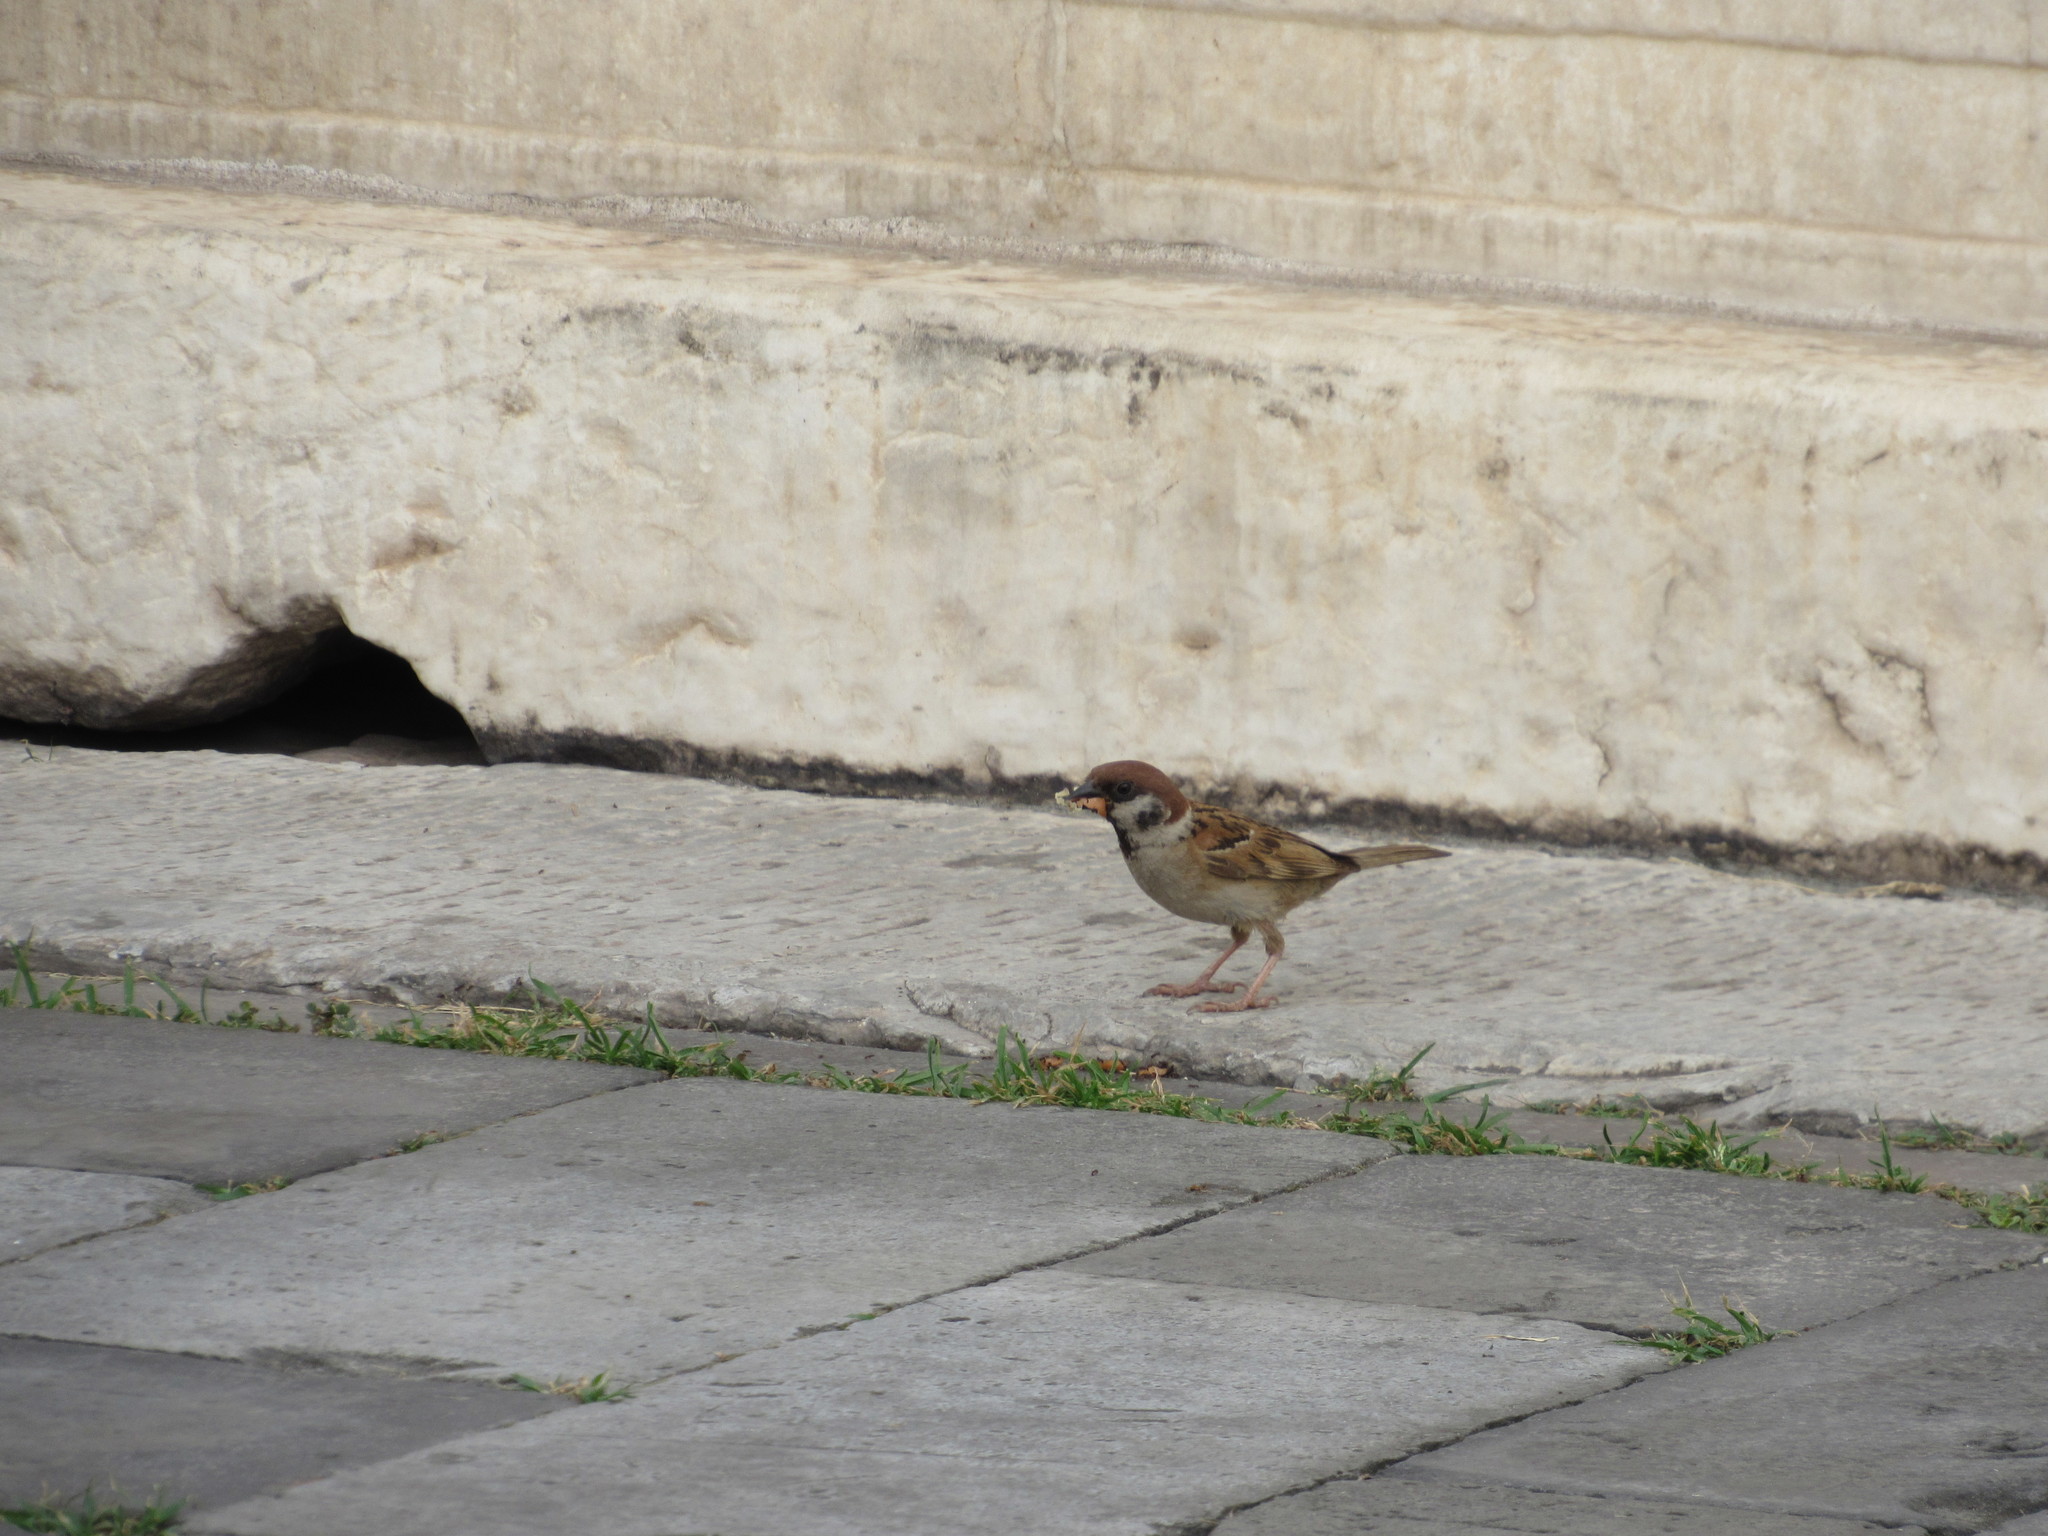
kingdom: Animalia
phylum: Chordata
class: Aves
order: Passeriformes
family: Passeridae
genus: Passer
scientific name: Passer montanus
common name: Eurasian tree sparrow
